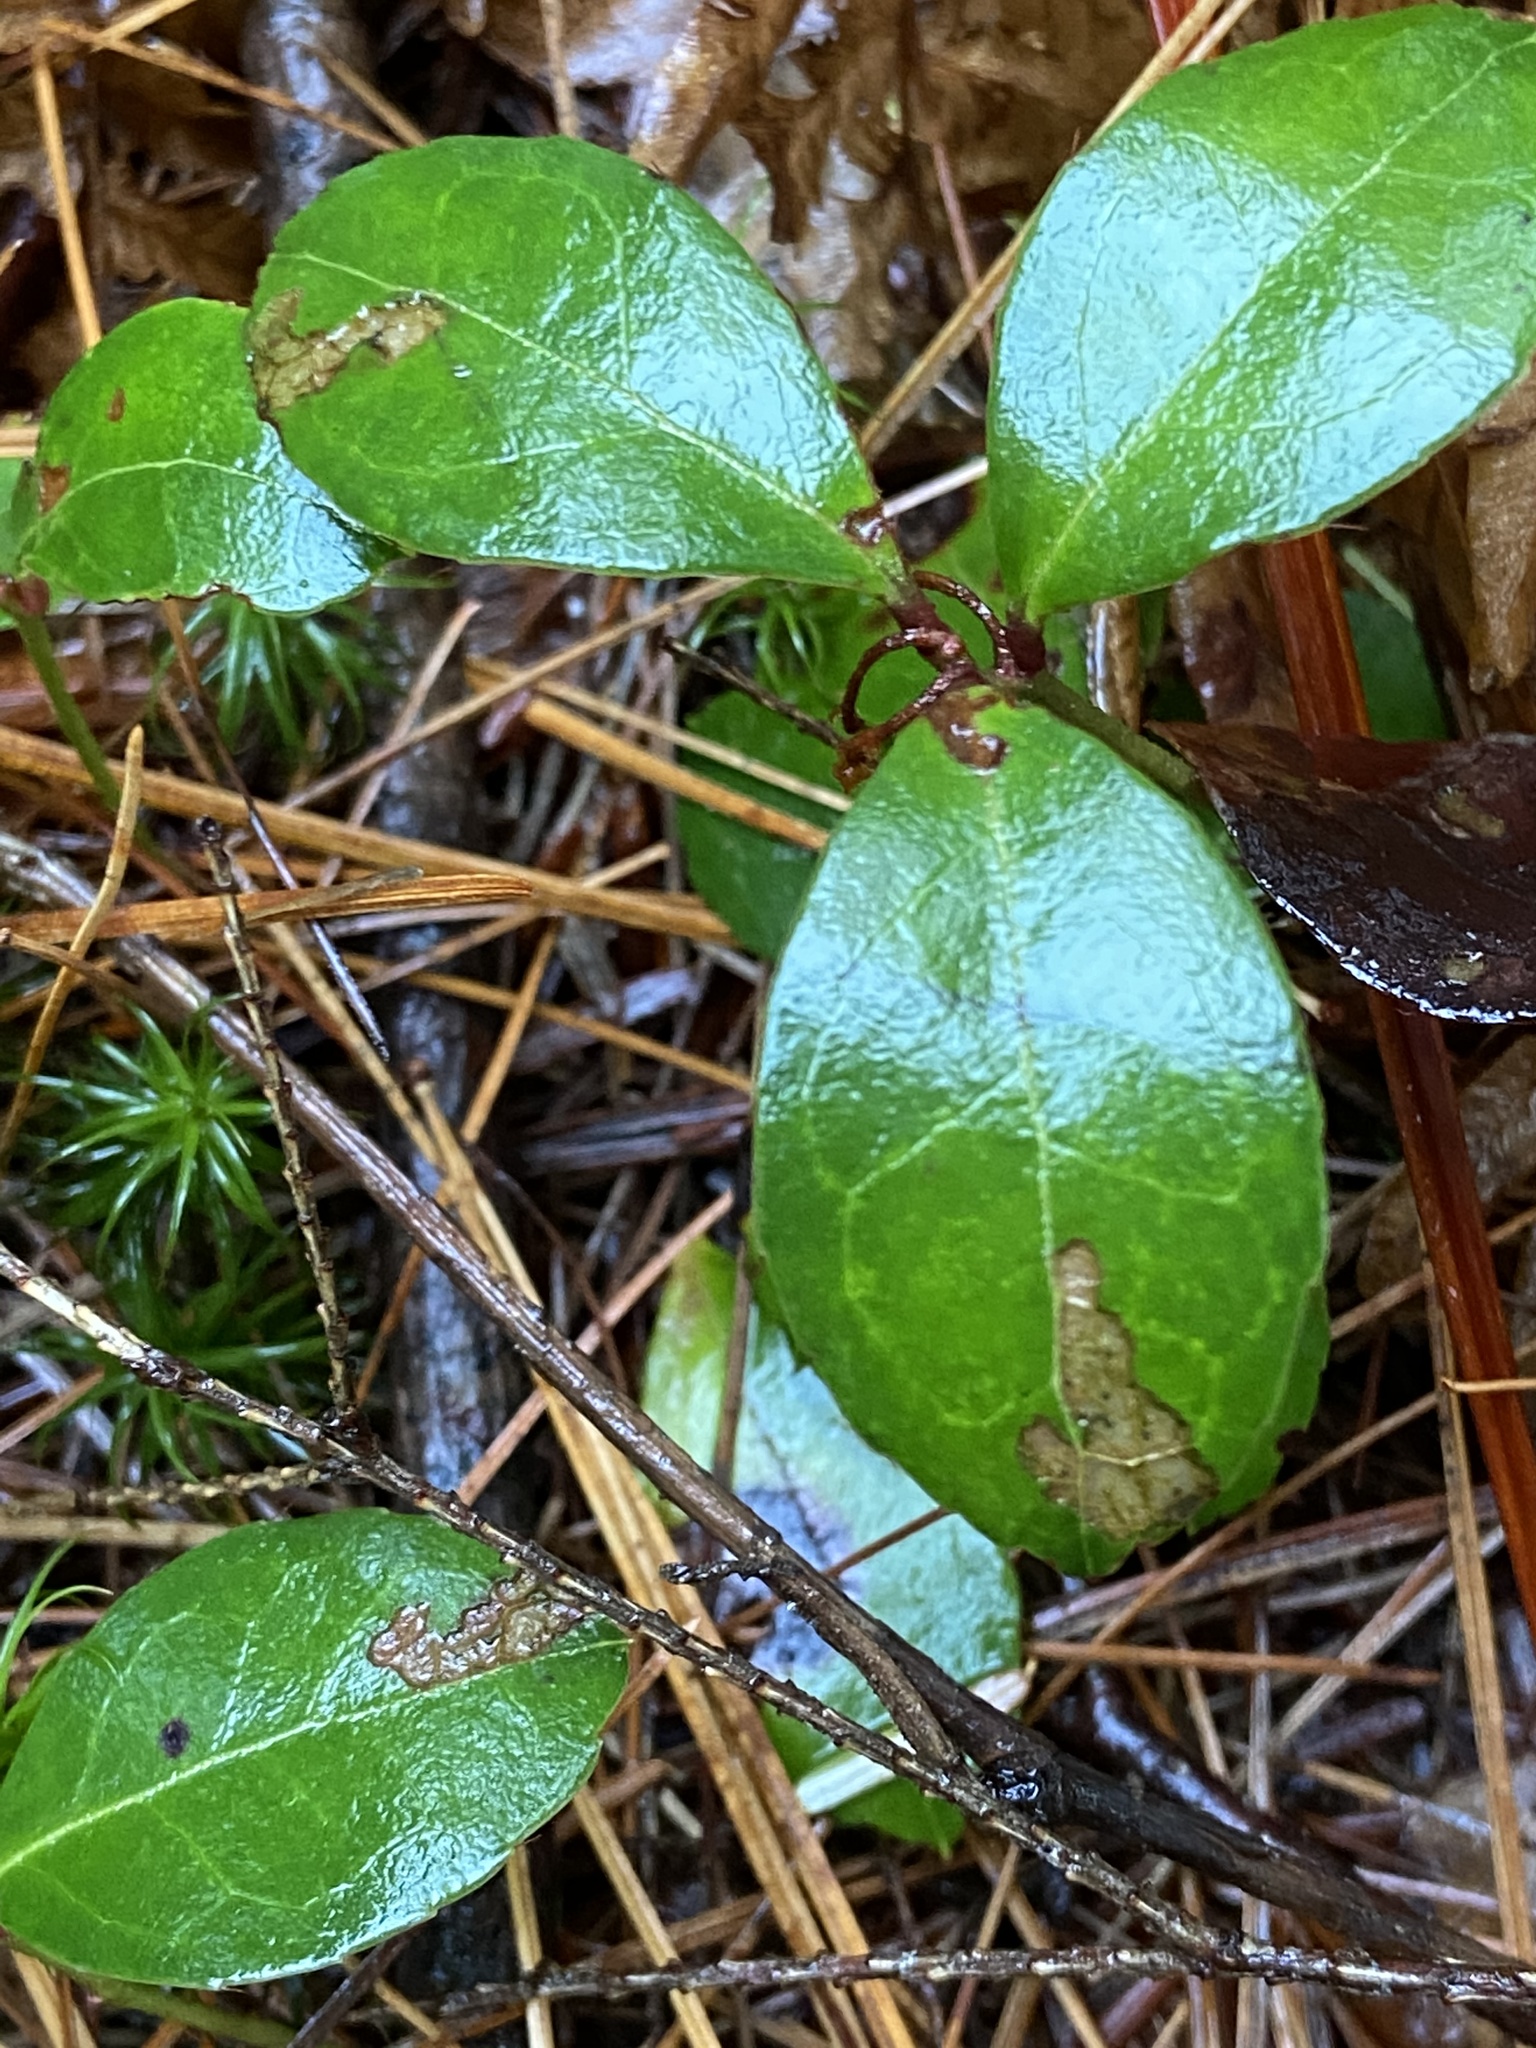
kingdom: Plantae
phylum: Tracheophyta
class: Magnoliopsida
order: Ericales
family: Ericaceae
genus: Gaultheria
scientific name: Gaultheria procumbens
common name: Checkerberry
